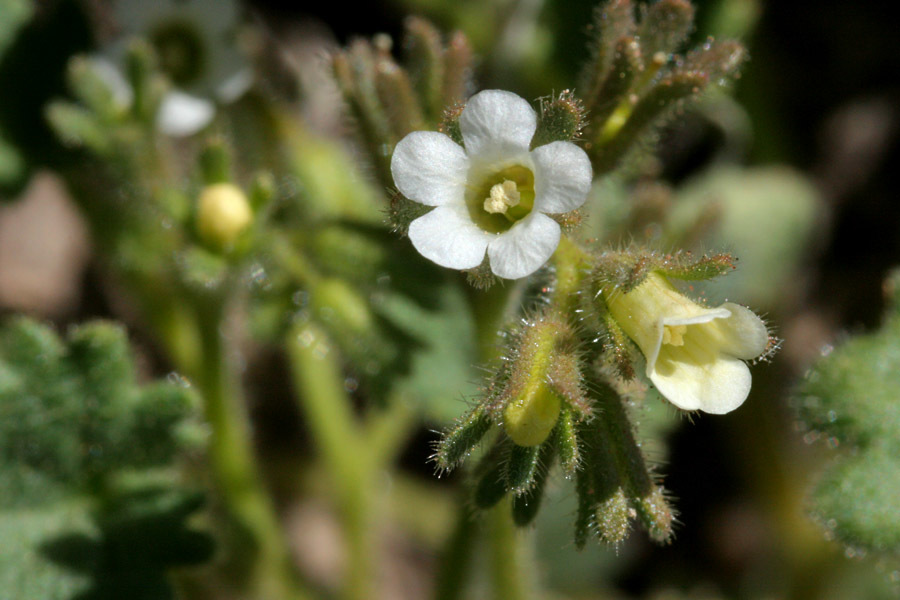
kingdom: Plantae
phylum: Tracheophyta
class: Magnoliopsida
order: Boraginales
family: Hydrophyllaceae
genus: Phacelia
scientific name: Phacelia rotundifolia
